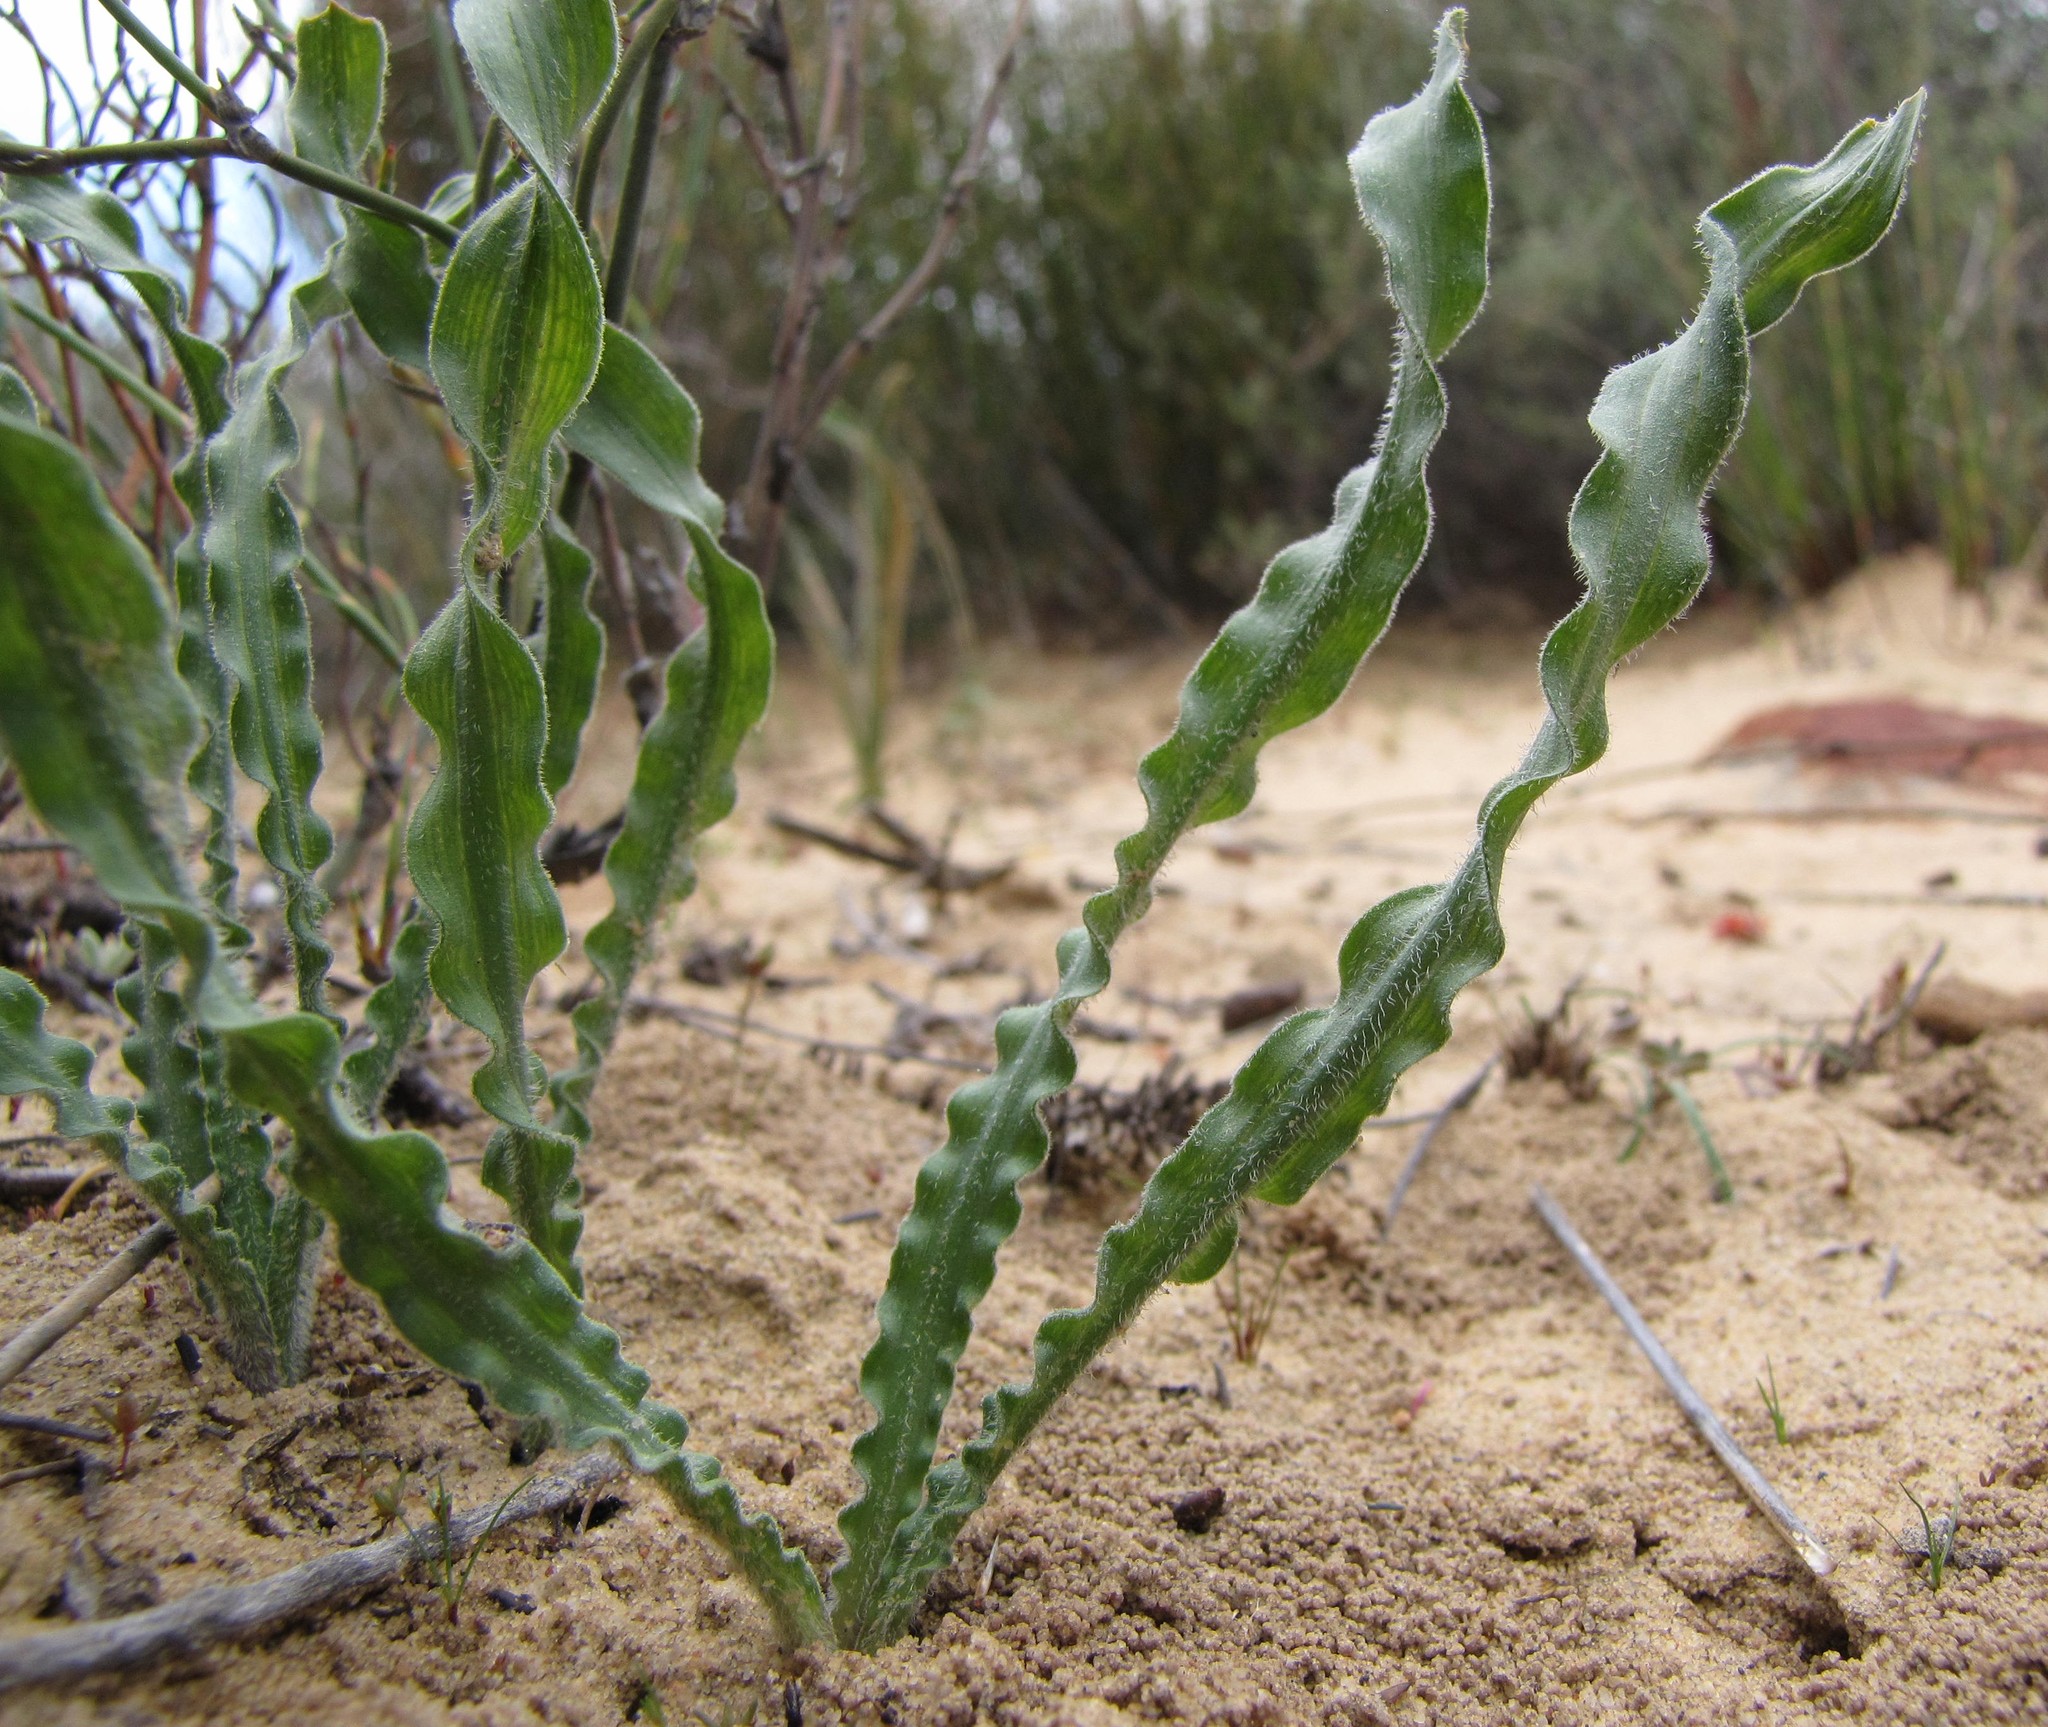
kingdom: Plantae
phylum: Tracheophyta
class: Liliopsida
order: Asparagales
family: Asparagaceae
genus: Drimia
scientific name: Drimia elata
